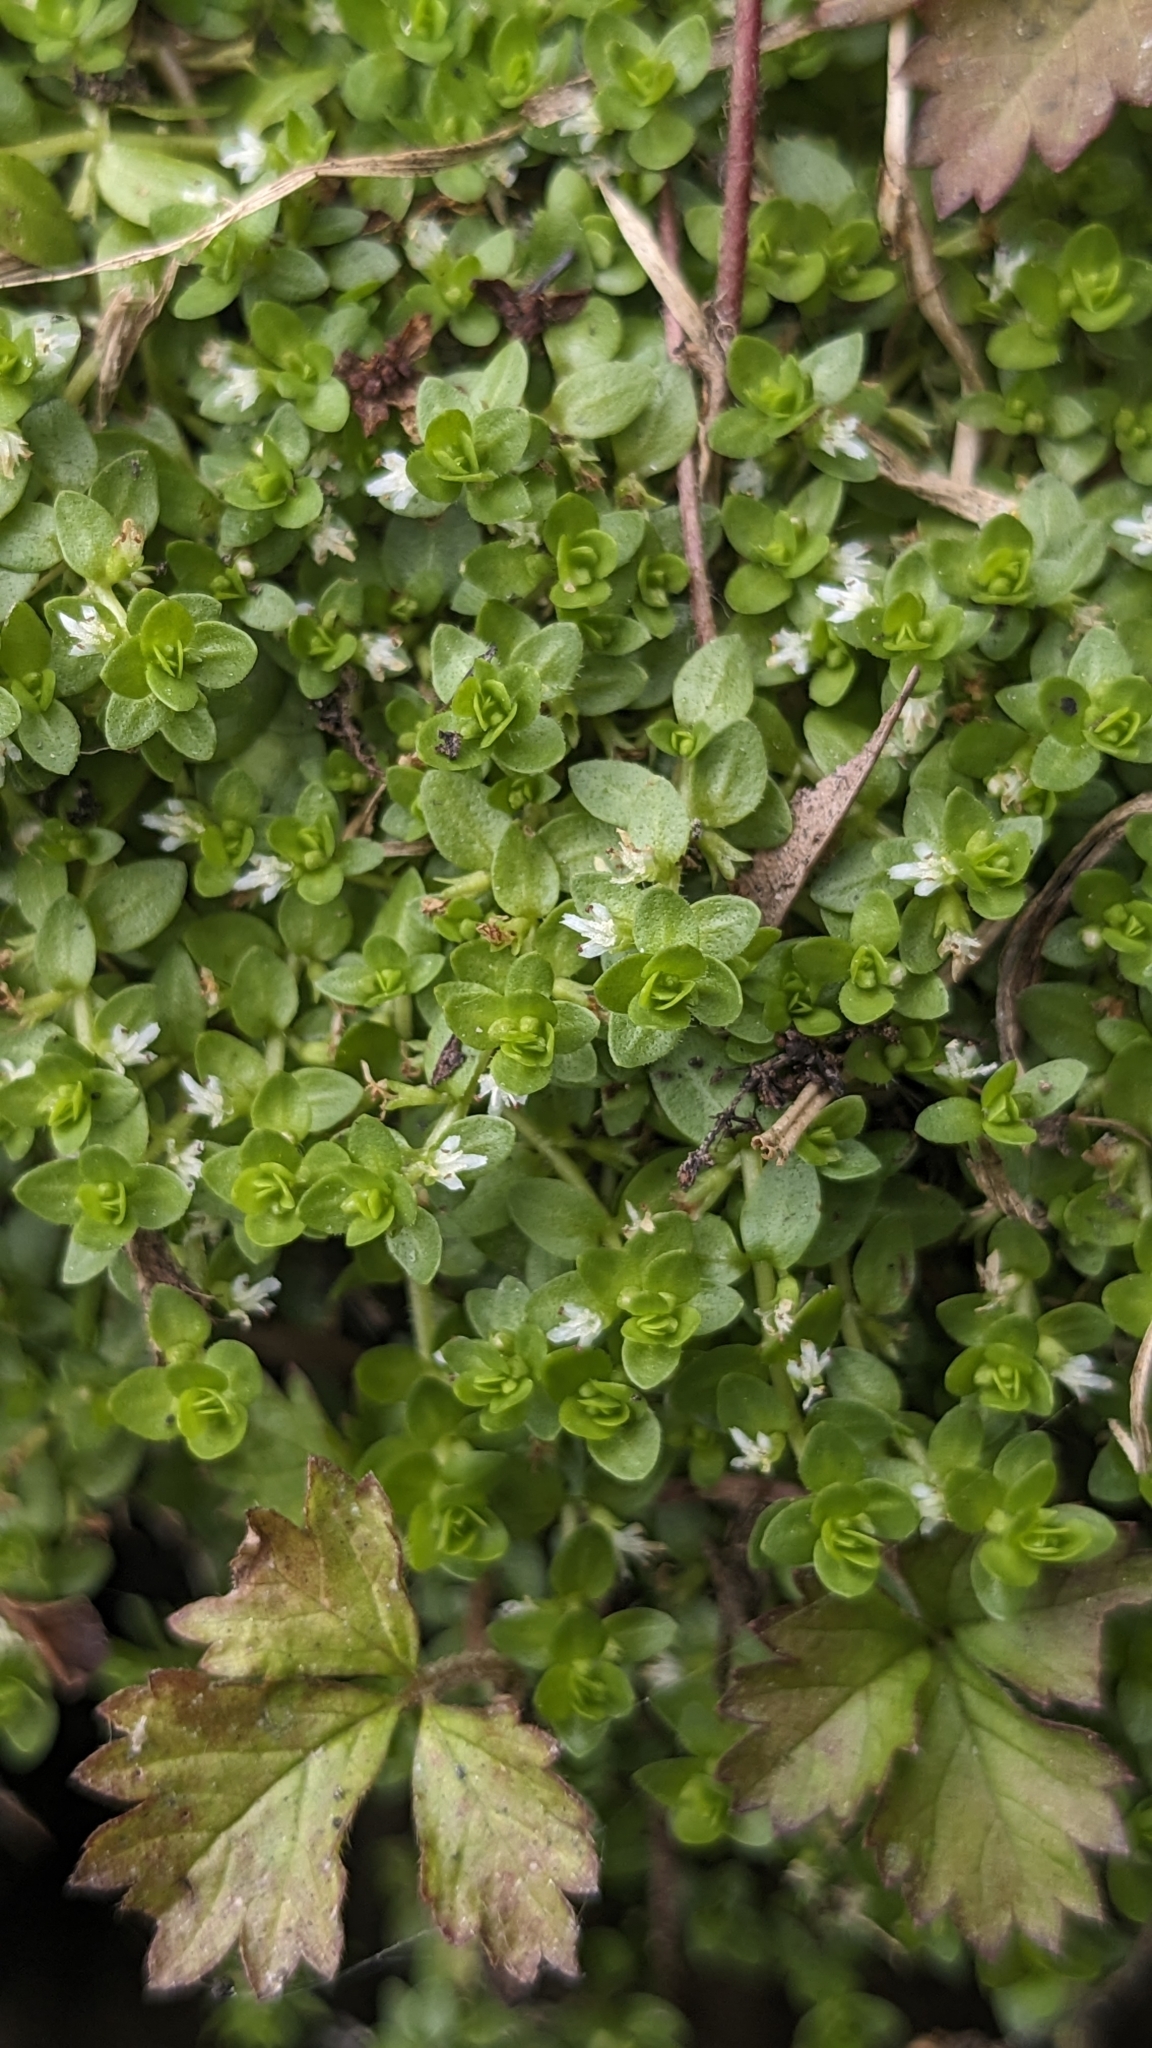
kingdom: Plantae
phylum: Tracheophyta
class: Magnoliopsida
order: Lamiales
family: Linderniaceae
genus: Micranthemum
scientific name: Micranthemum micranthemoides
